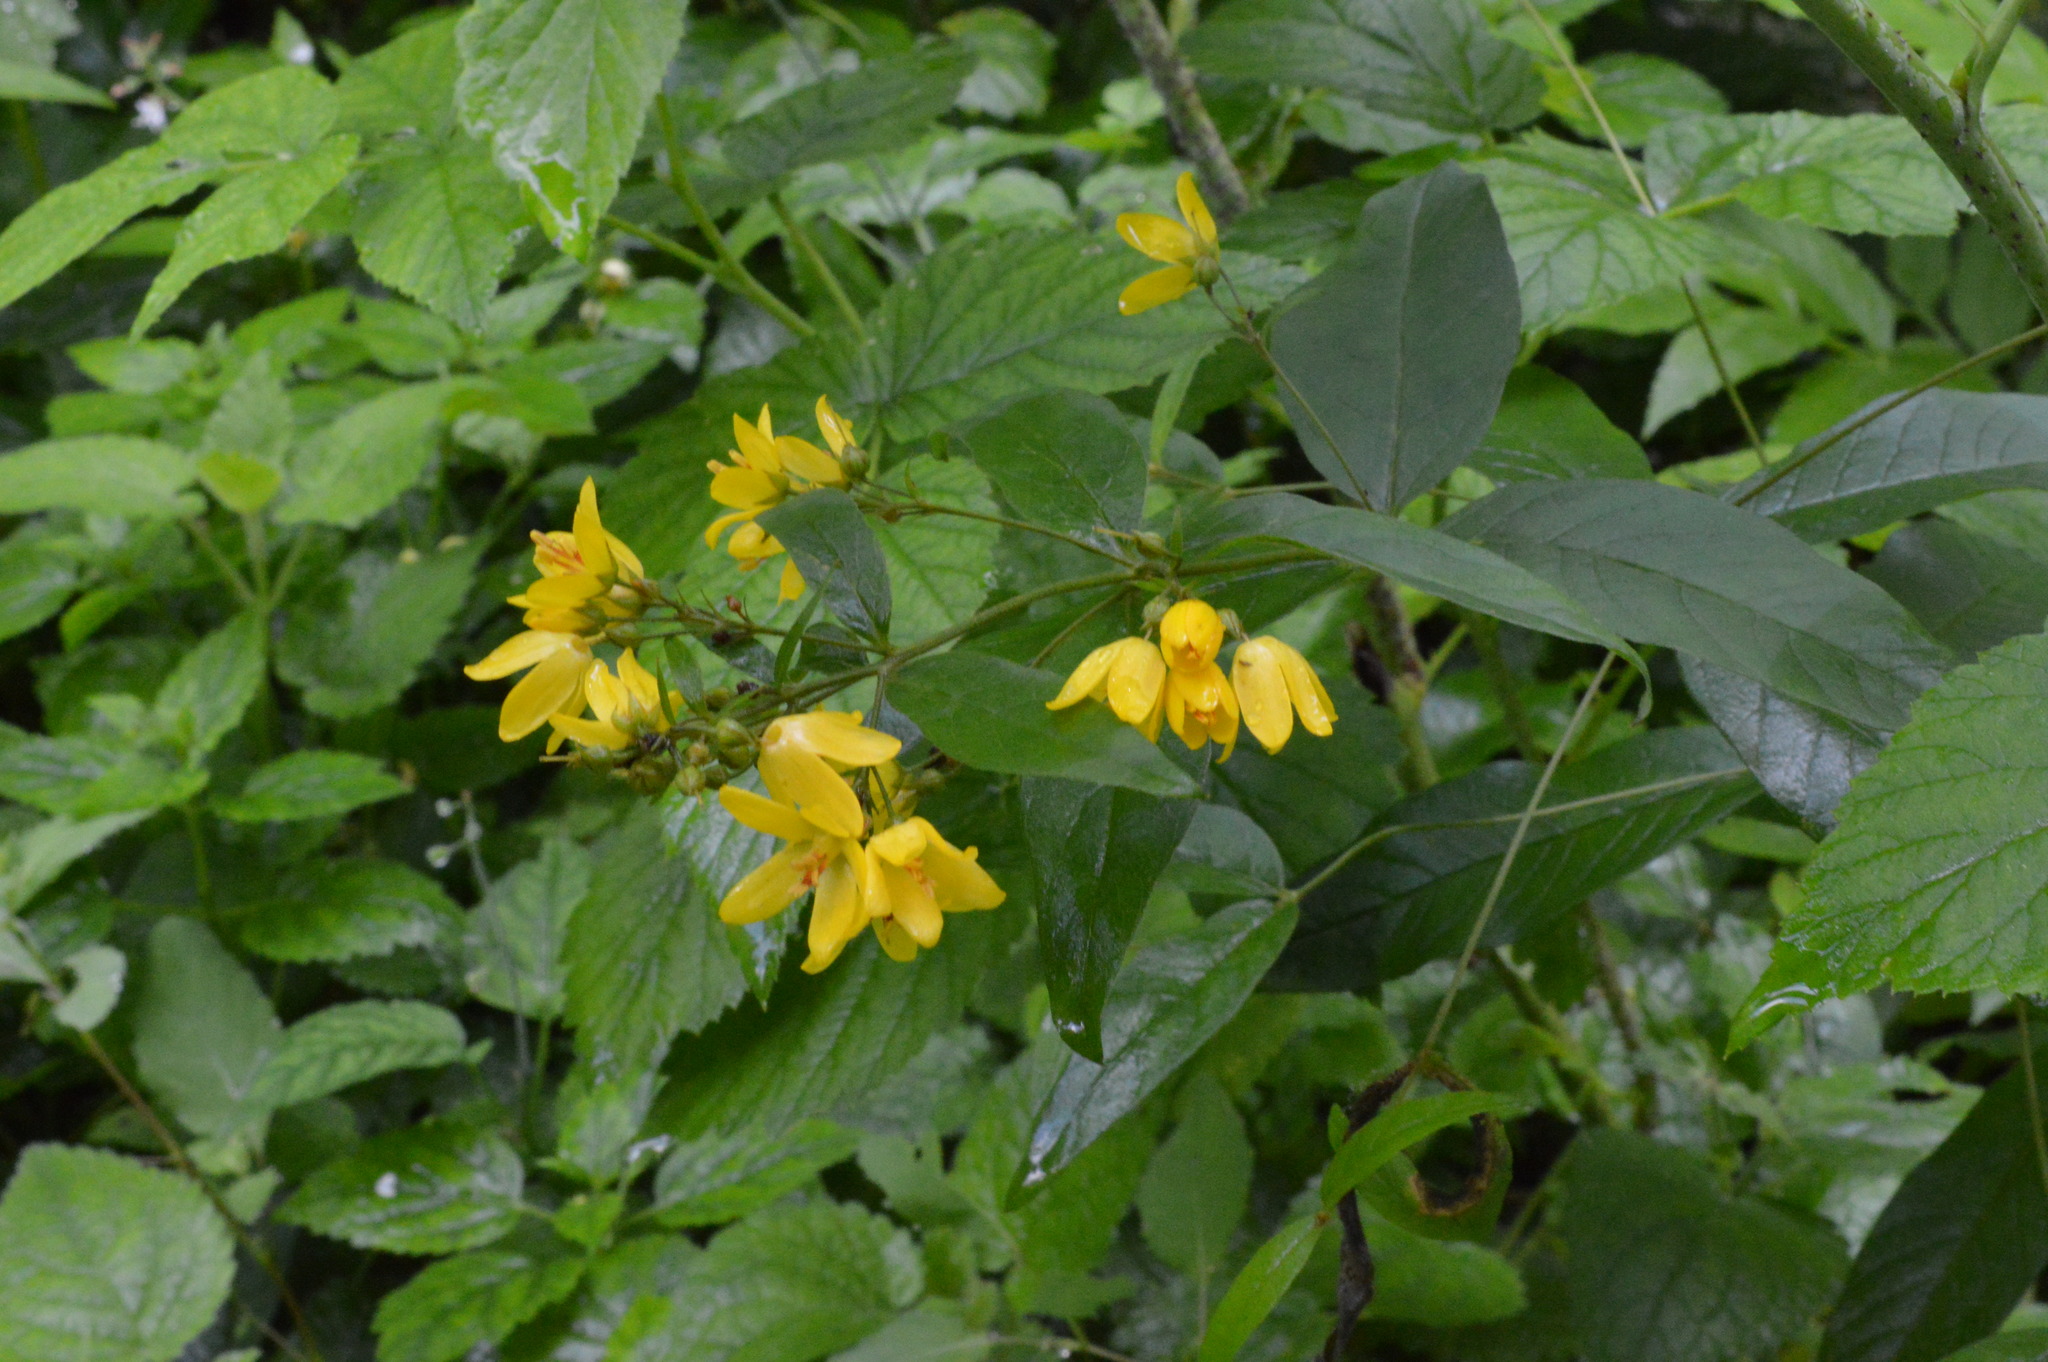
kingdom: Plantae
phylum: Tracheophyta
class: Magnoliopsida
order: Ericales
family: Primulaceae
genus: Lysimachia
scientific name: Lysimachia vulgaris
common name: Yellow loosestrife
